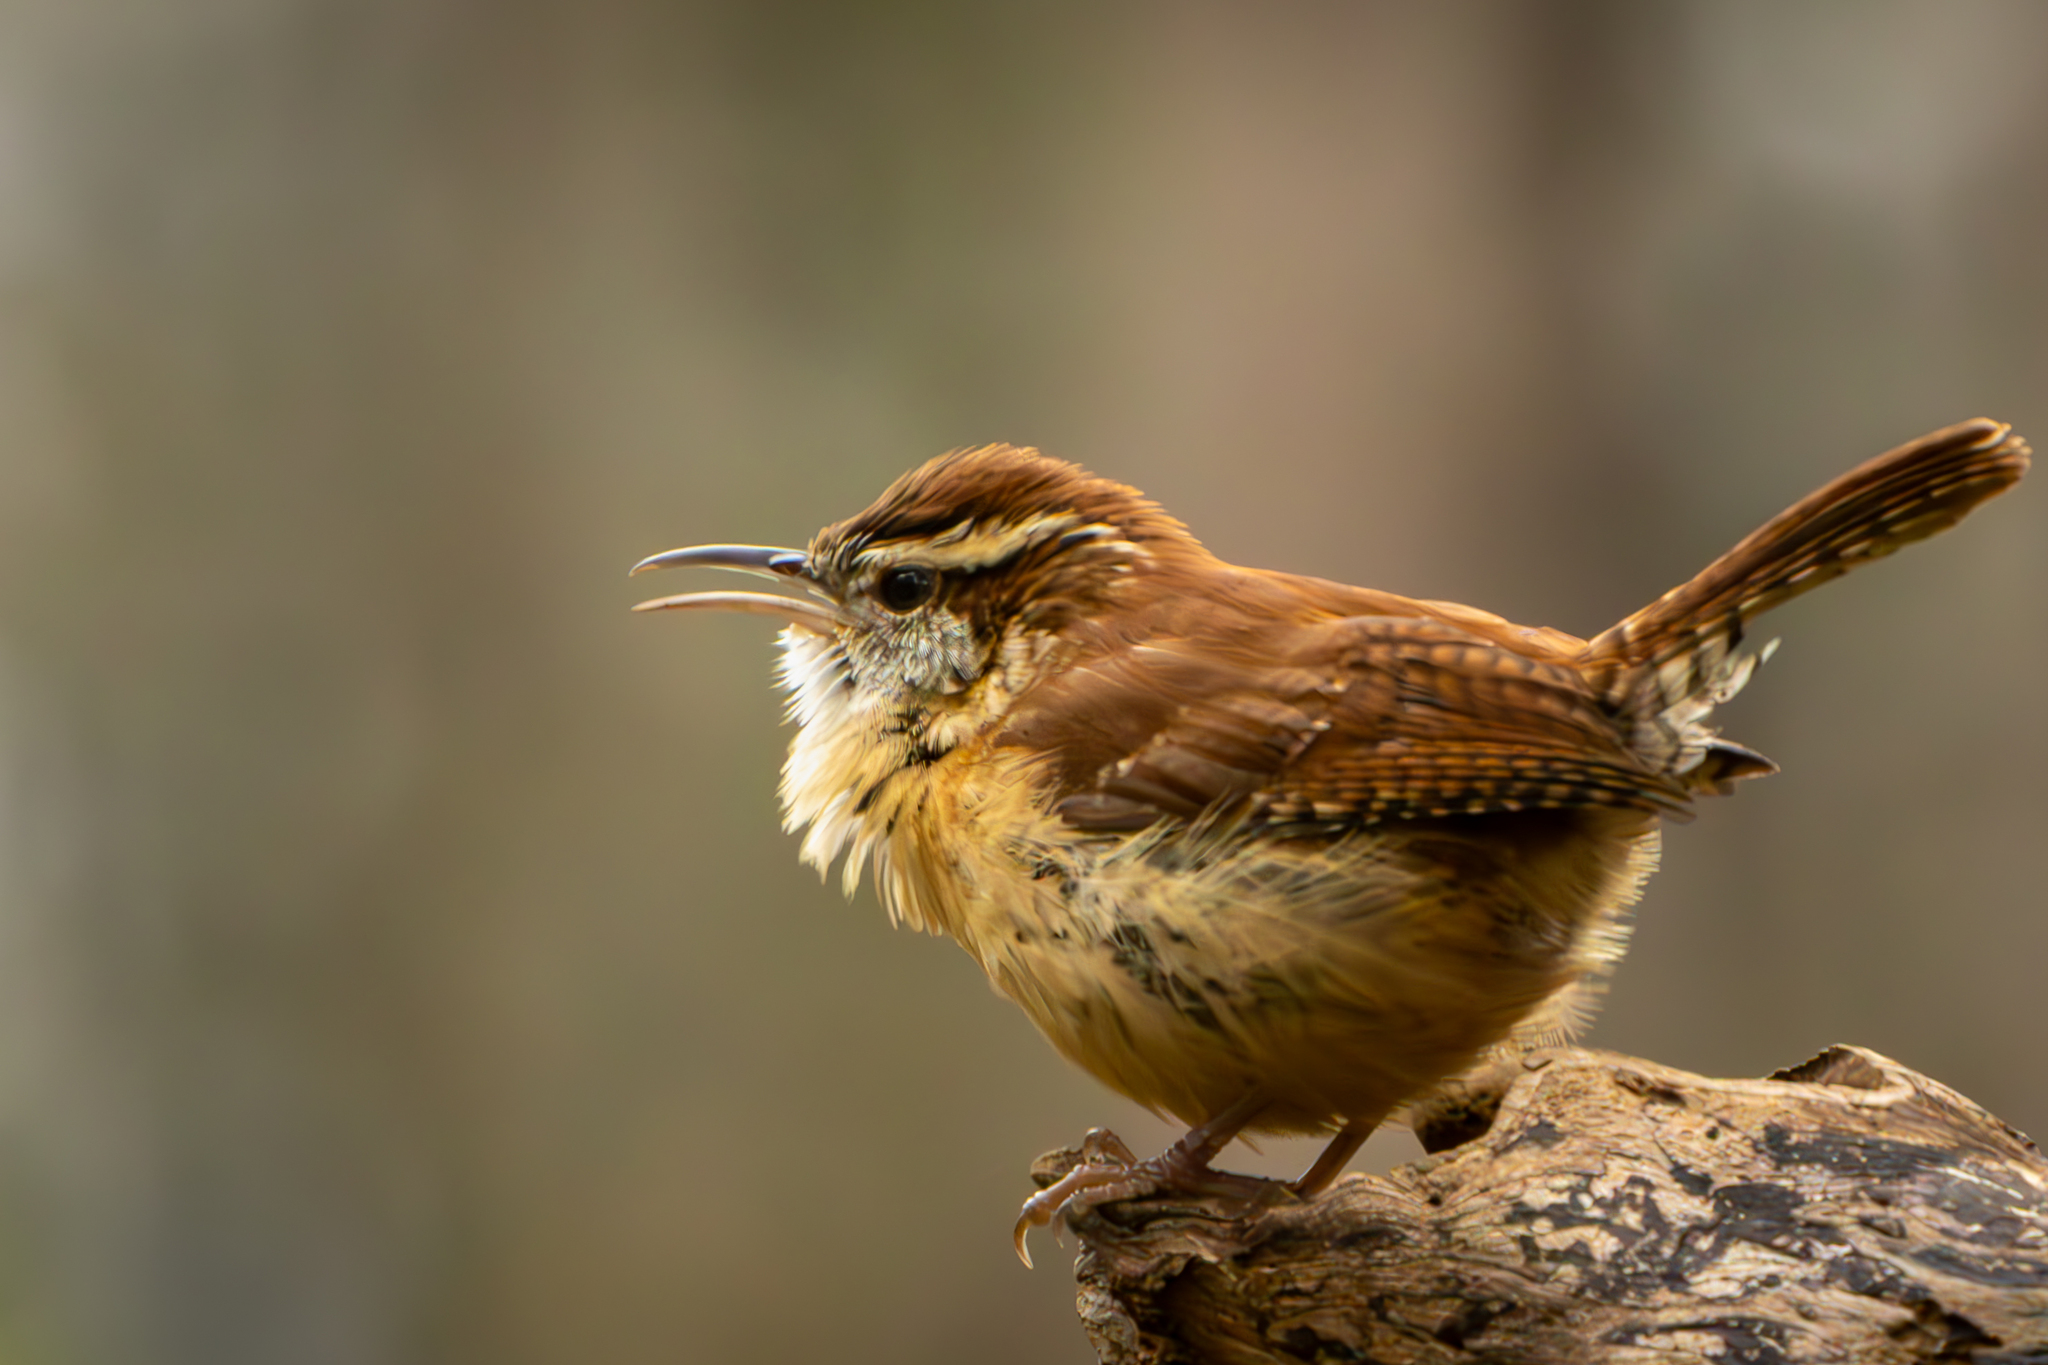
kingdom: Animalia
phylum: Chordata
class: Aves
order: Passeriformes
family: Troglodytidae
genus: Thryothorus
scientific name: Thryothorus ludovicianus
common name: Carolina wren
